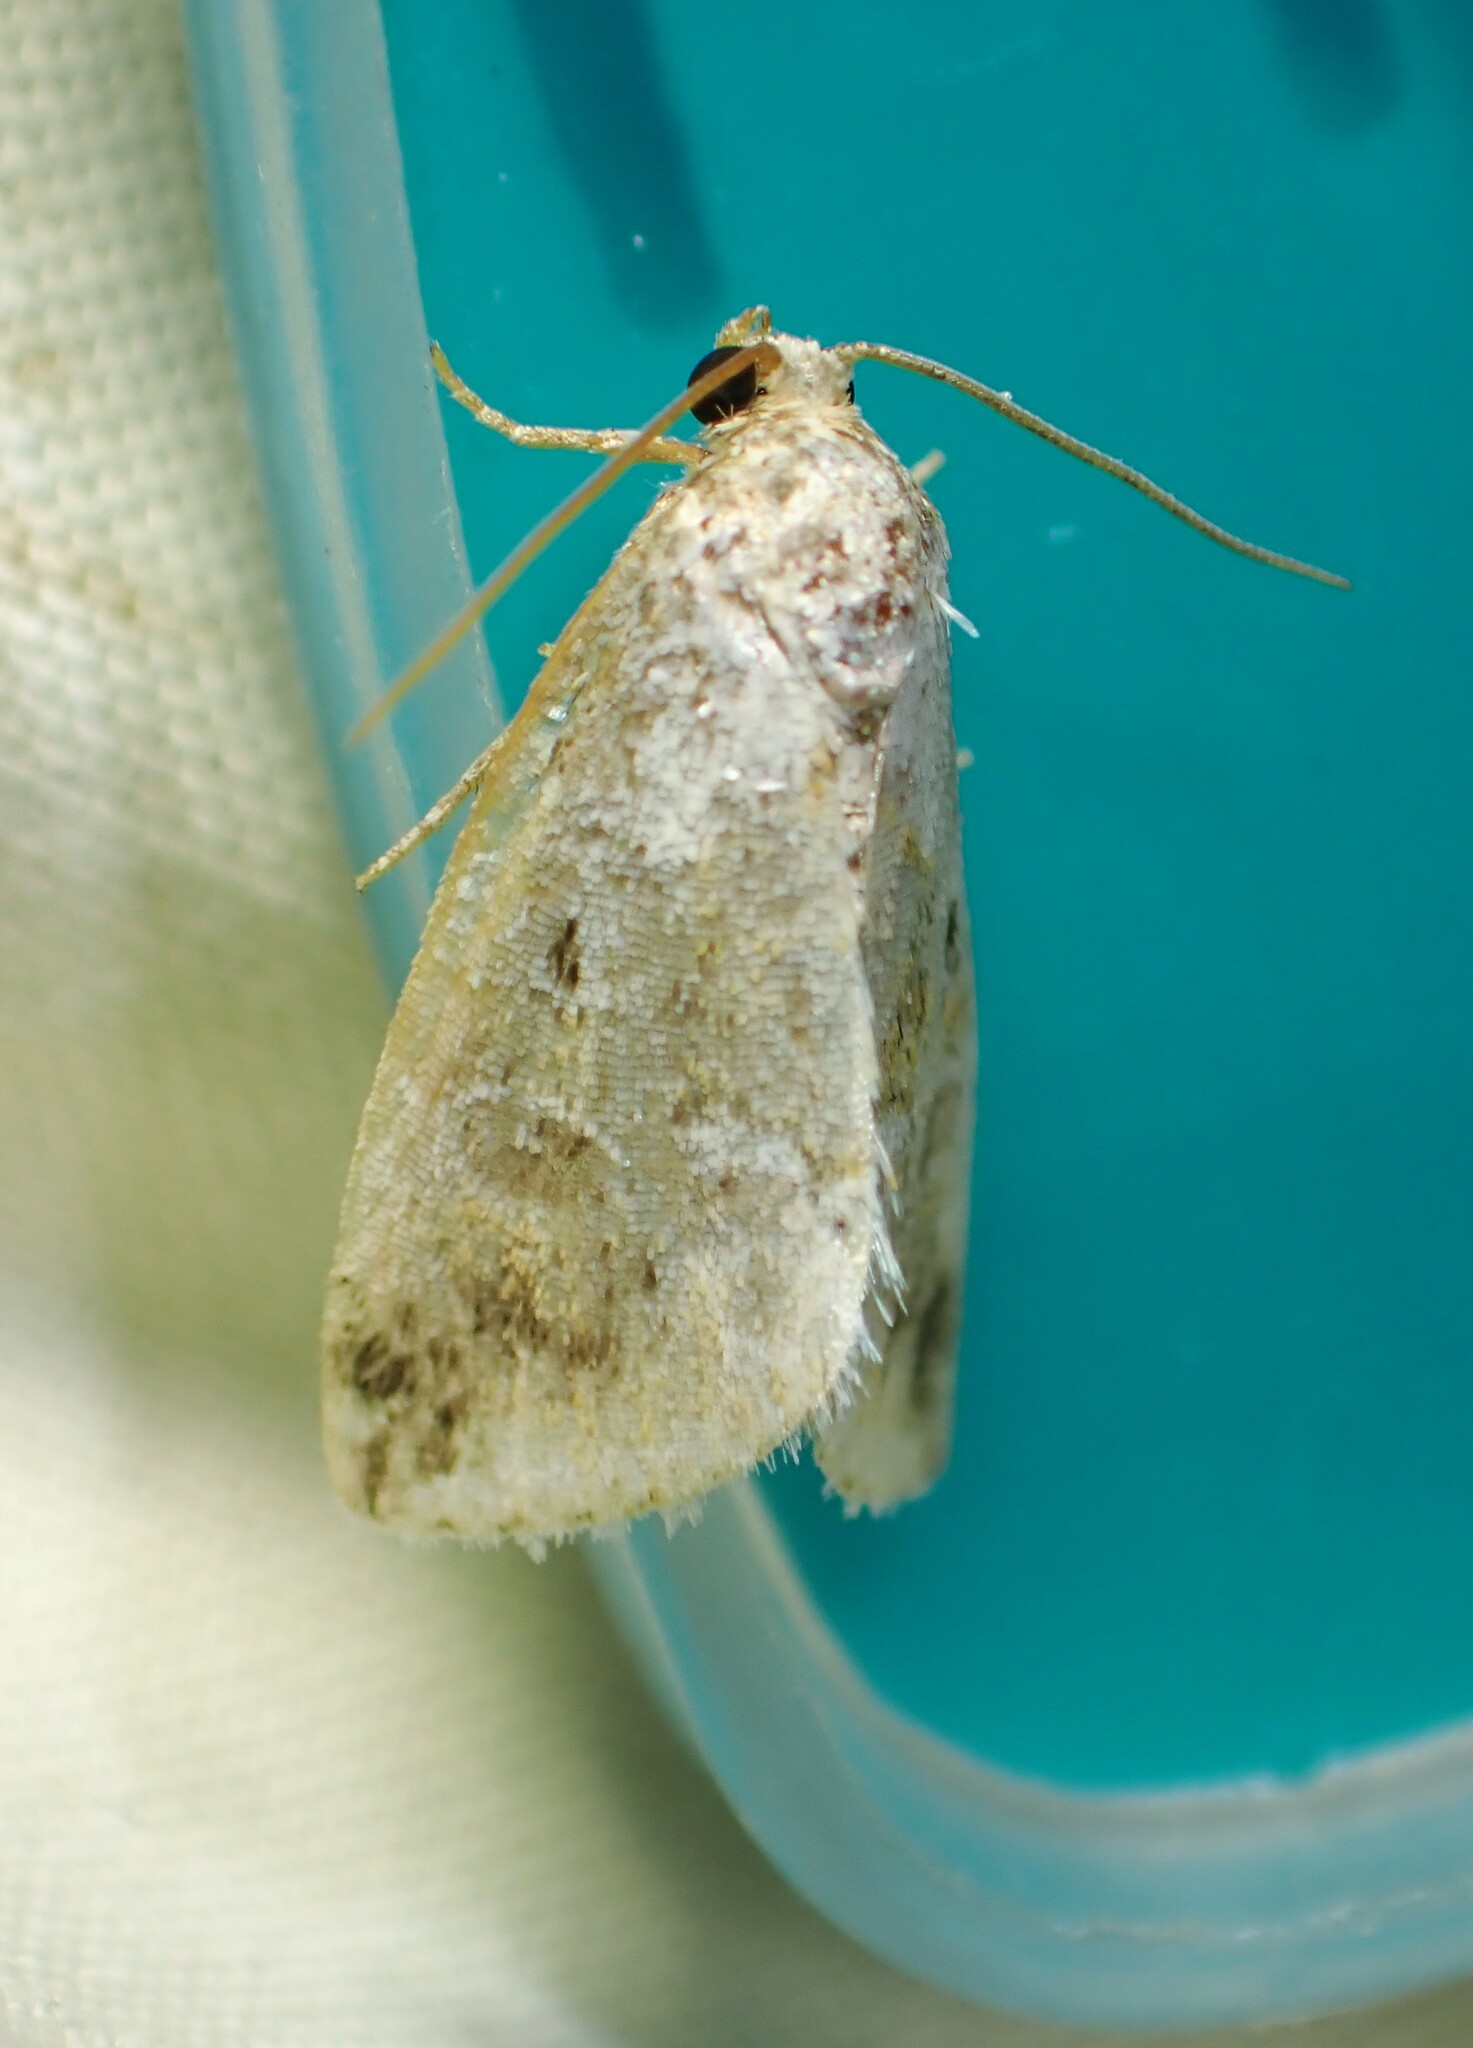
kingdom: Animalia
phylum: Arthropoda
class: Insecta
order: Lepidoptera
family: Noctuidae
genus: Maliattha
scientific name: Maliattha synochitis
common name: Black-dotted glyph
